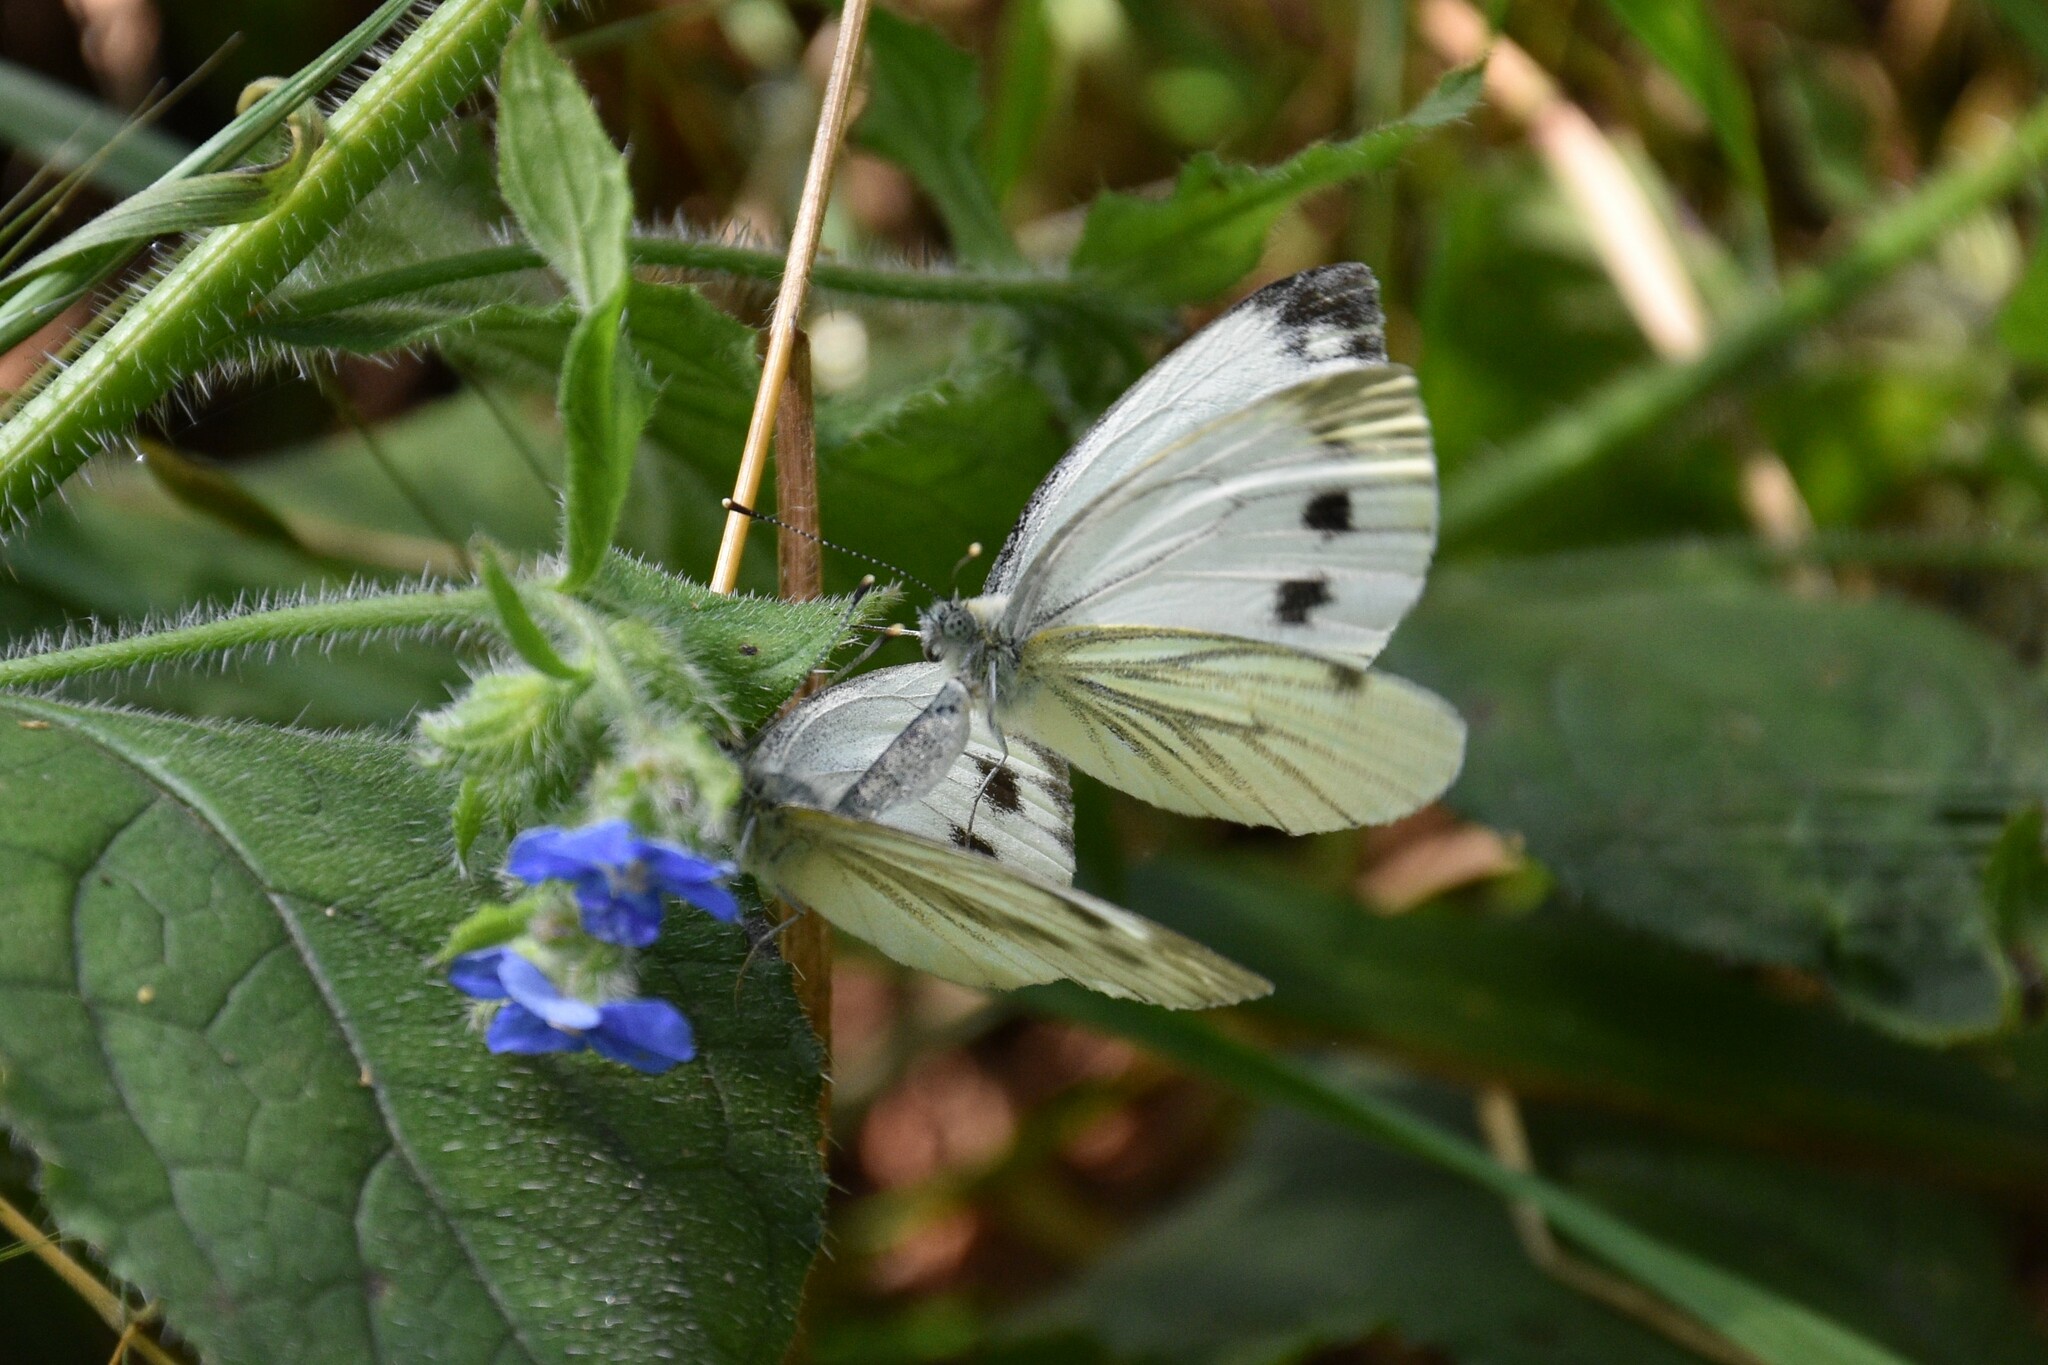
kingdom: Animalia
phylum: Arthropoda
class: Insecta
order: Lepidoptera
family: Pieridae
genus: Pieris
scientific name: Pieris napi
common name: Green-veined white
